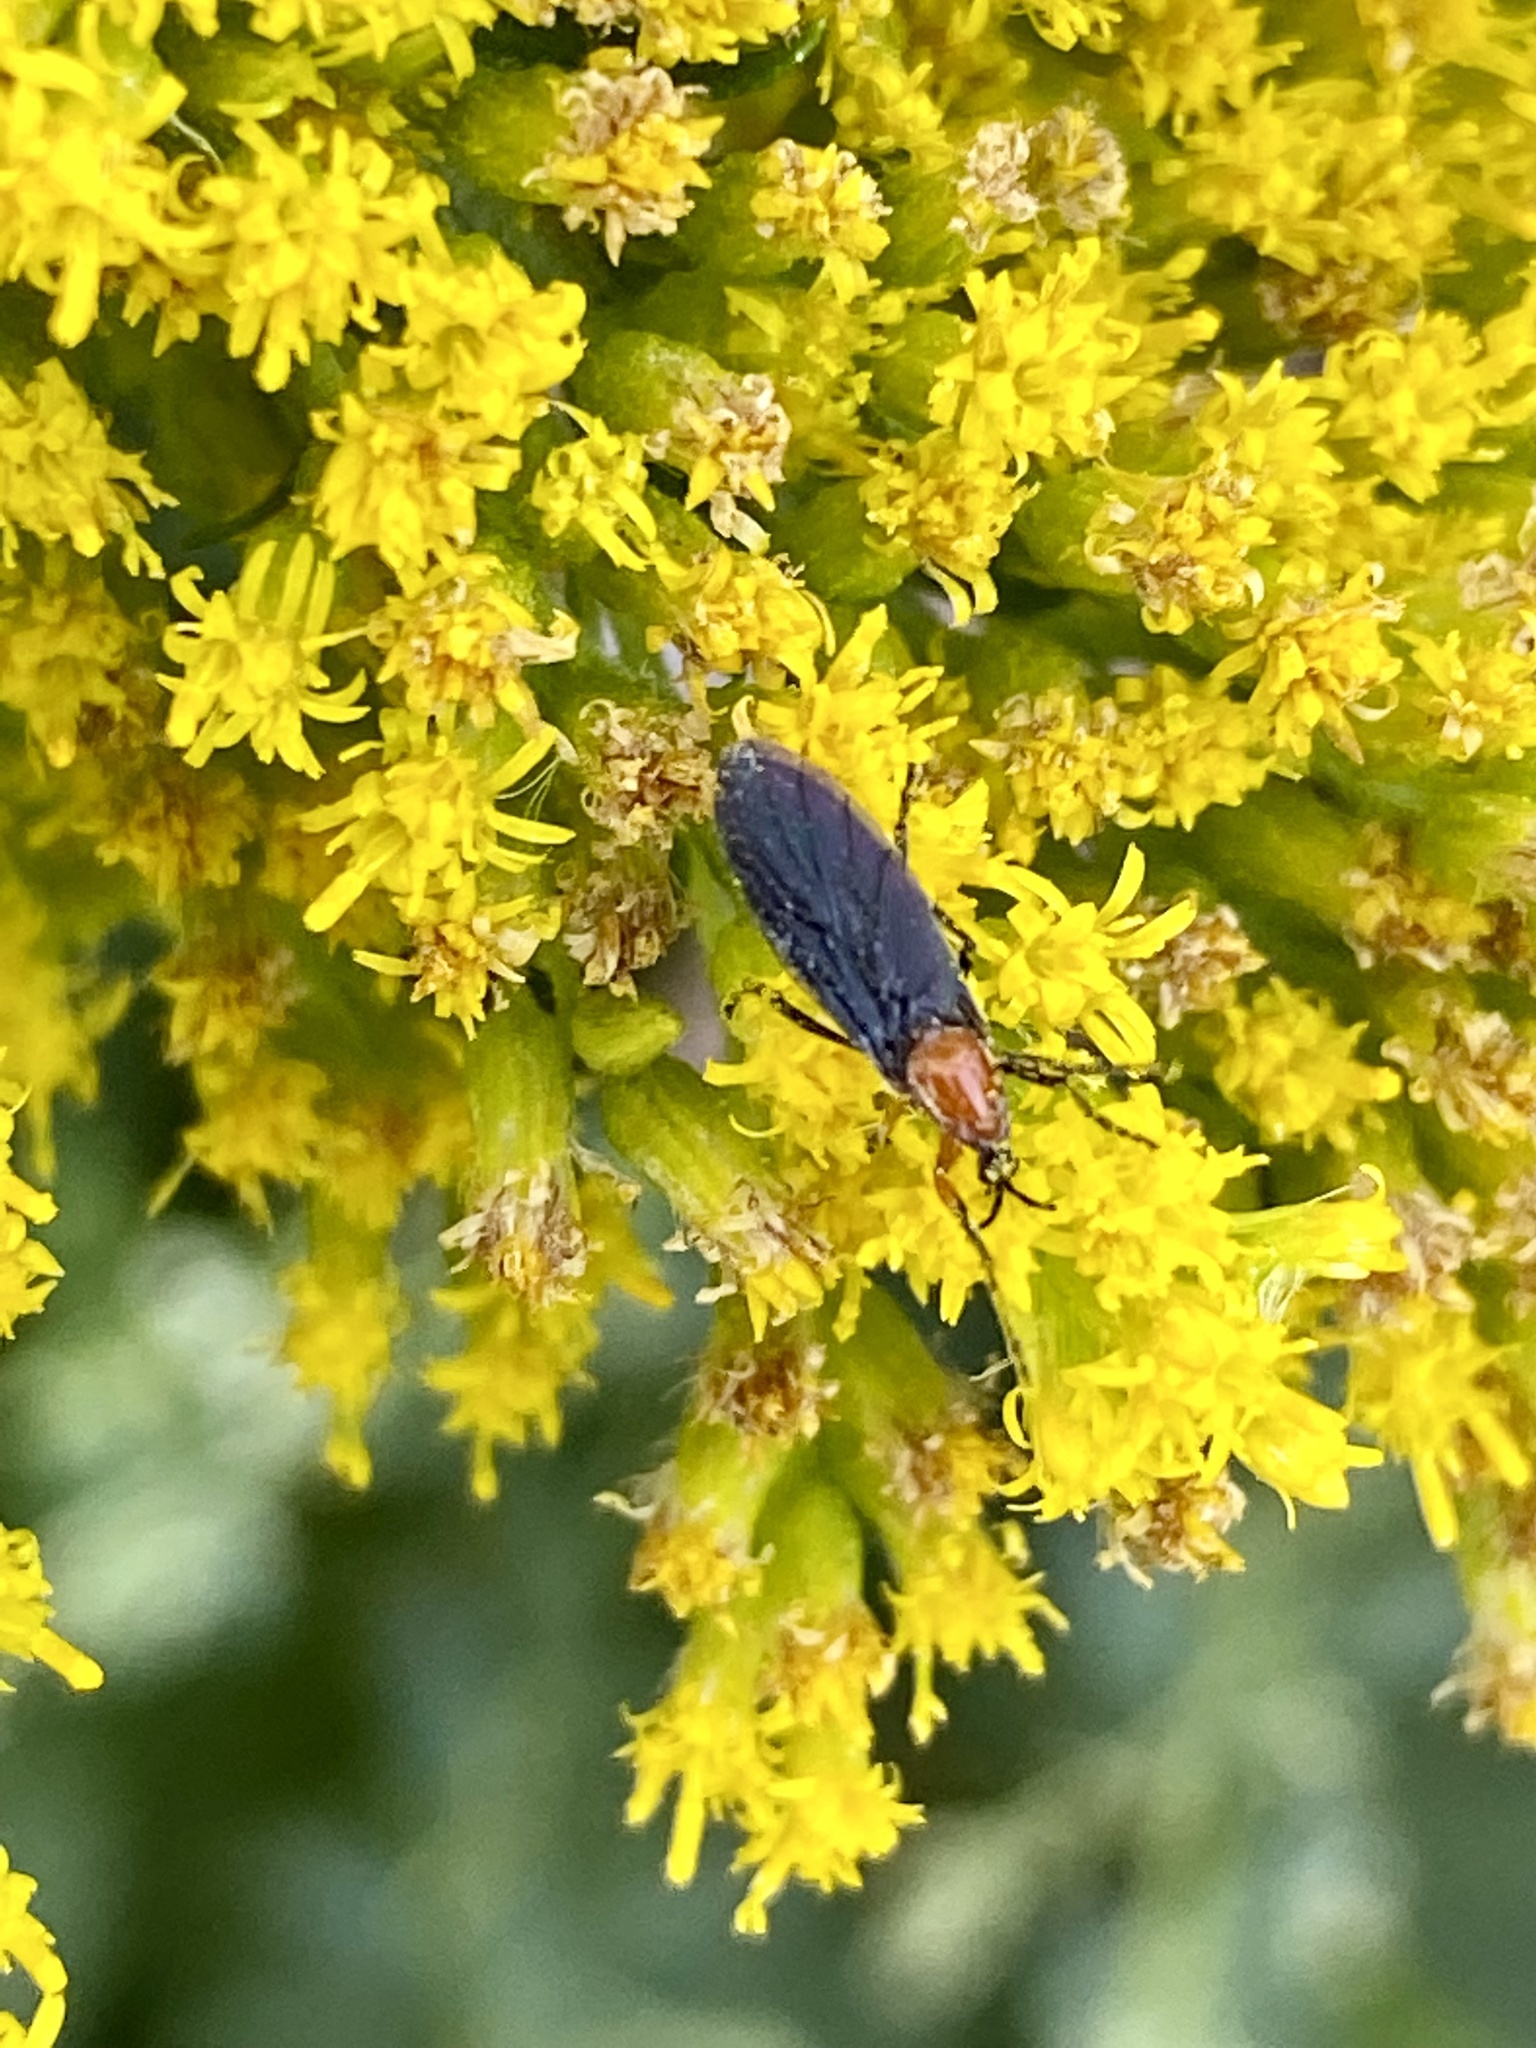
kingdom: Animalia
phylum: Arthropoda
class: Insecta
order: Diptera
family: Bibionidae
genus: Dilophus
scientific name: Dilophus spinipes
